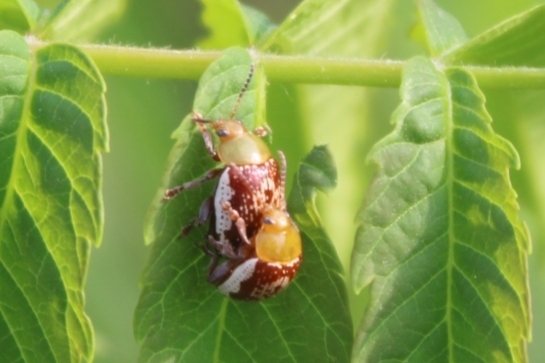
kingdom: Animalia
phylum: Arthropoda
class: Insecta
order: Coleoptera
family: Chrysomelidae
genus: Blepharida
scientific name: Blepharida rhois
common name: Sumac flea beetle
